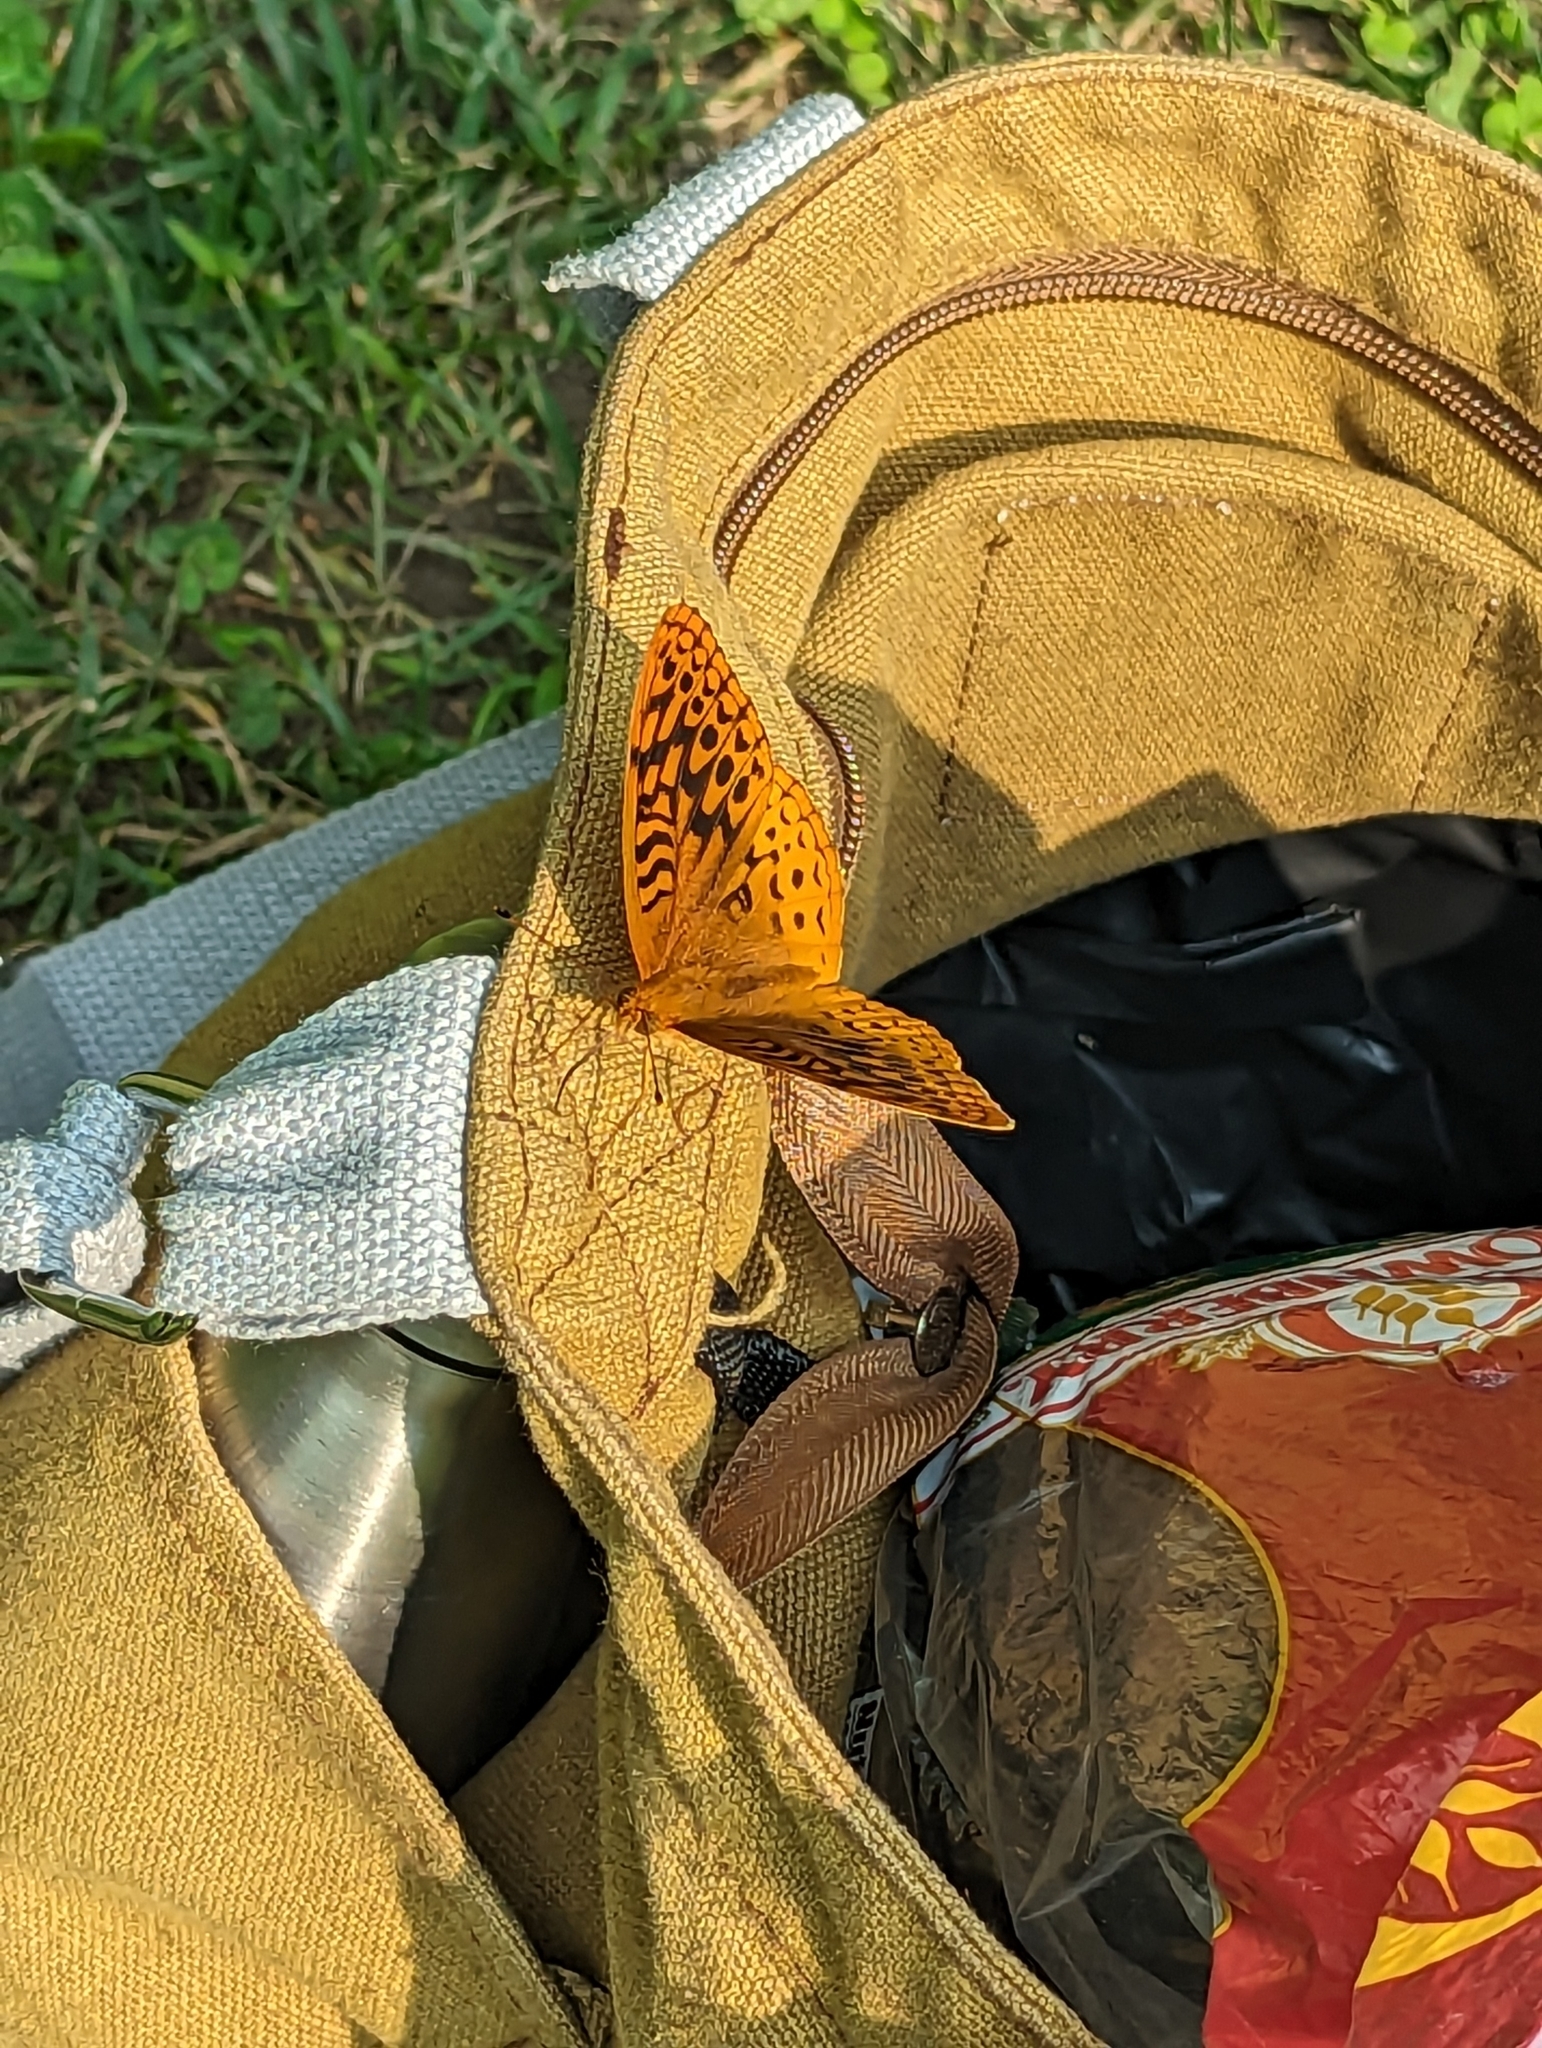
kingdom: Animalia
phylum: Arthropoda
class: Insecta
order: Lepidoptera
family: Nymphalidae
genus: Speyeria
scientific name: Speyeria cybele
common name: Great spangled fritillary
